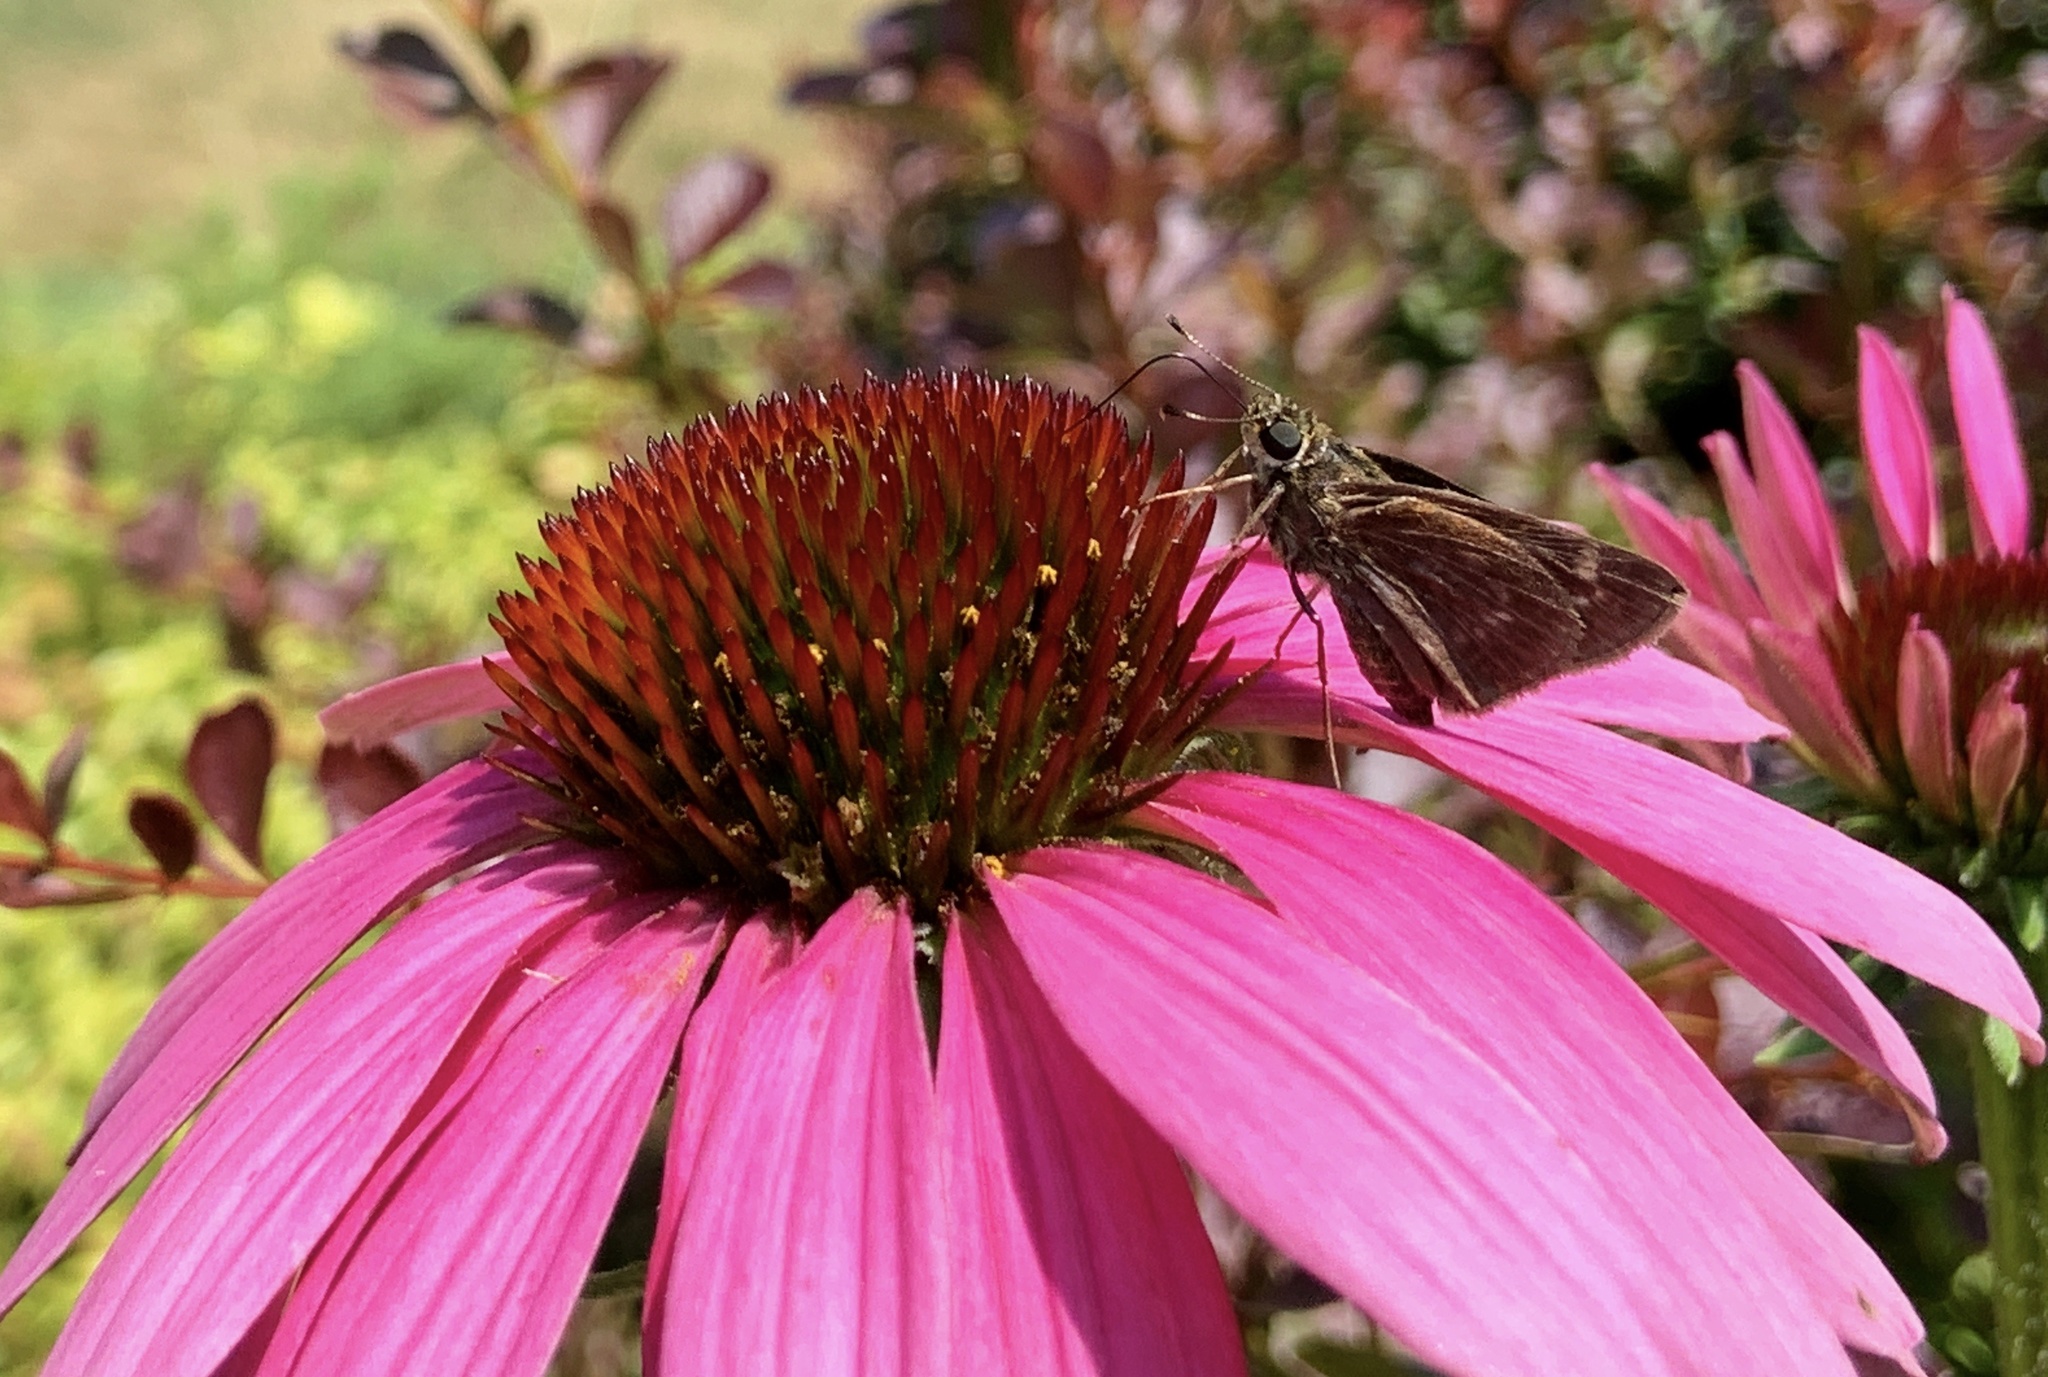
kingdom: Animalia
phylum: Arthropoda
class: Insecta
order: Lepidoptera
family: Hesperiidae
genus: Vernia
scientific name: Vernia verna
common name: Little glassywing
